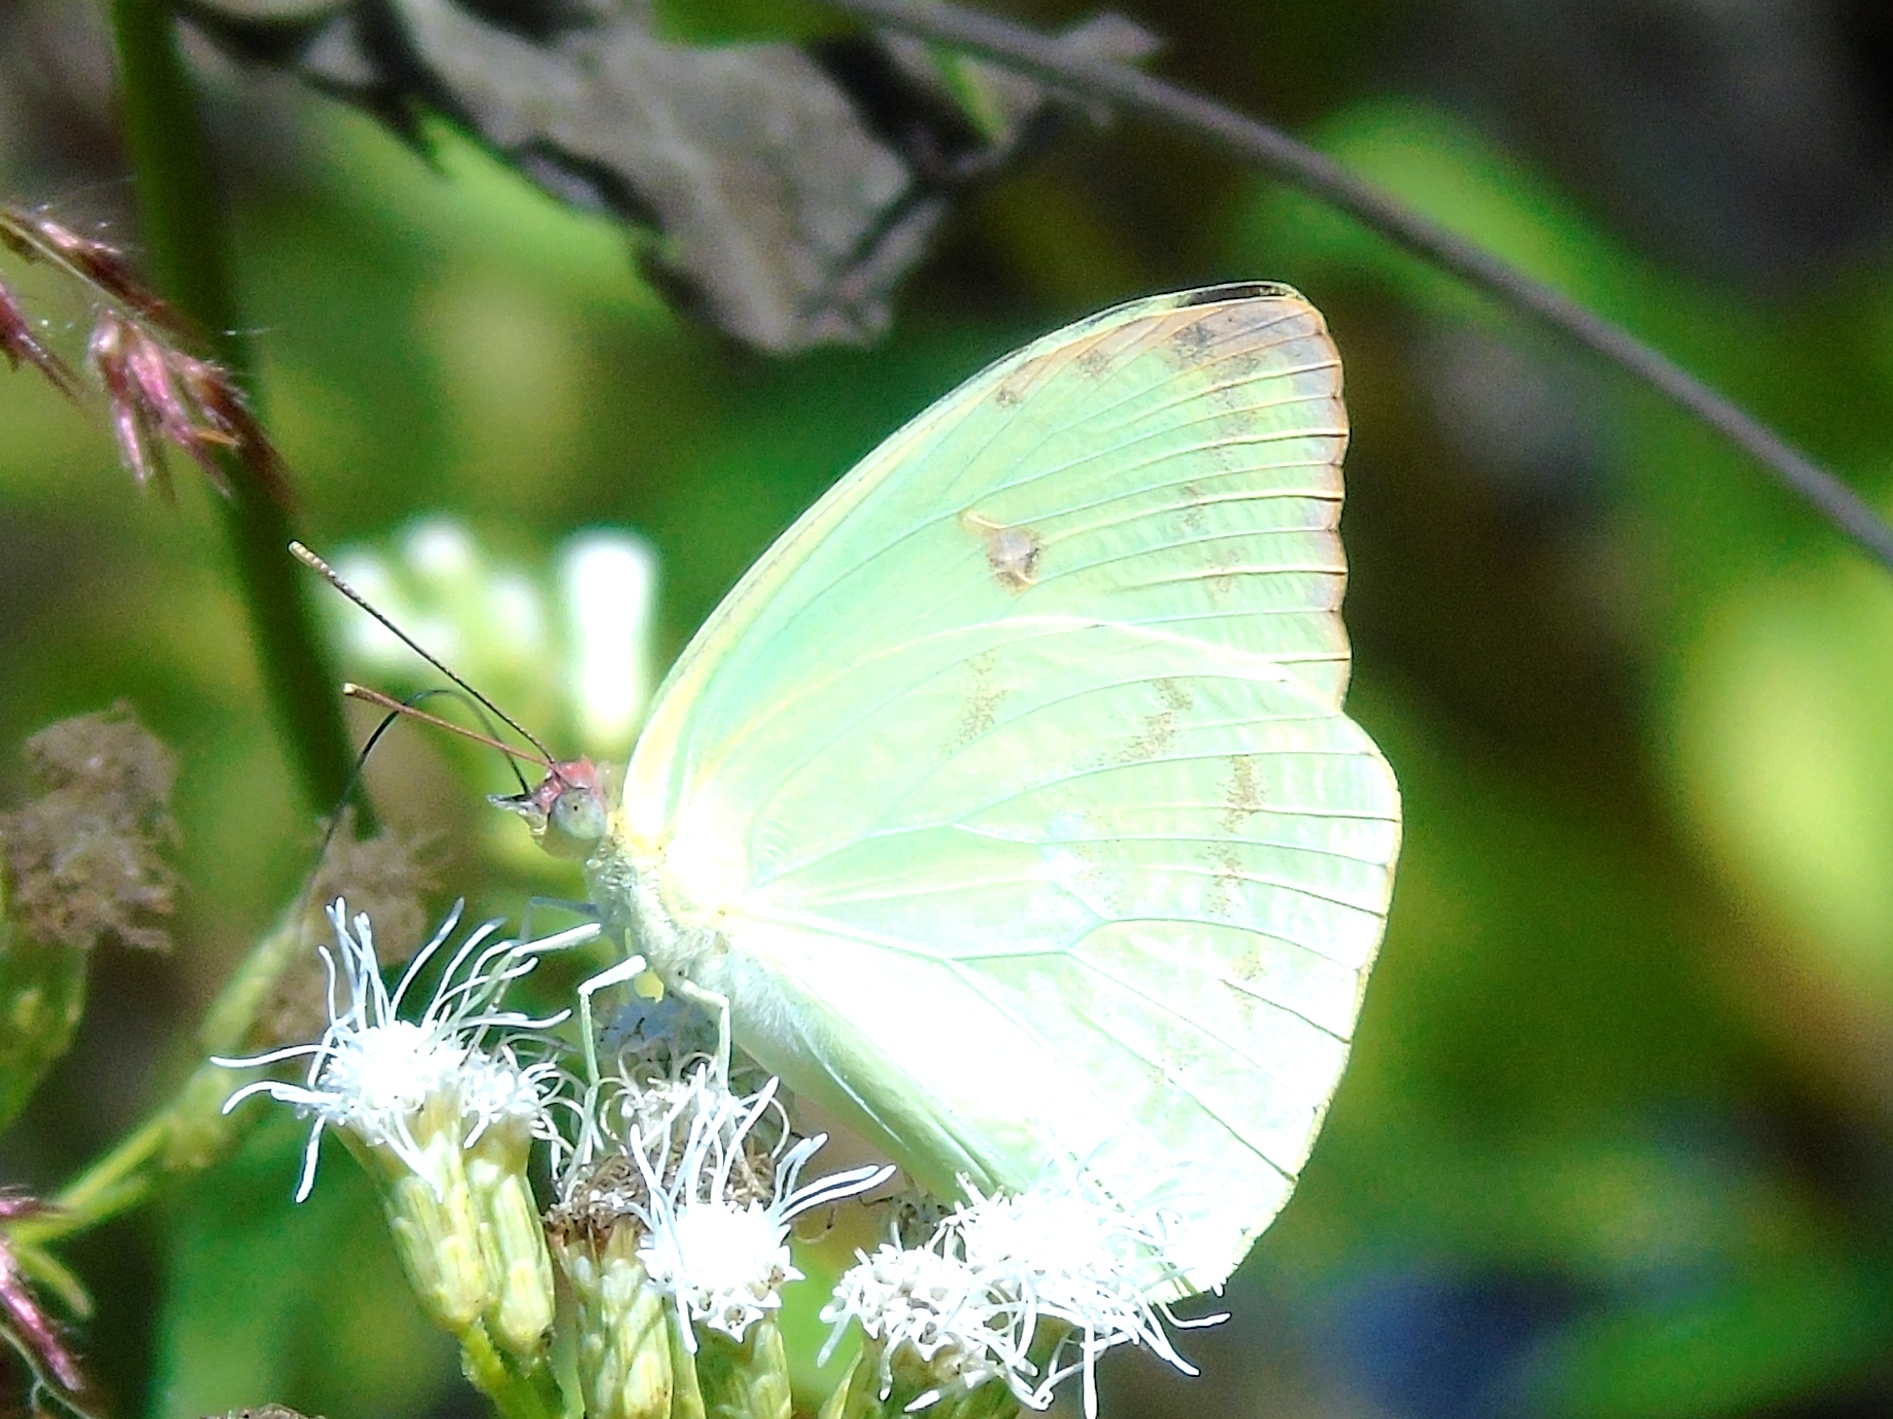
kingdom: Animalia
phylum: Arthropoda
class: Insecta
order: Lepidoptera
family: Pieridae
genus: Aphrissa
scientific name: Aphrissa statira
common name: Statira sulphur
